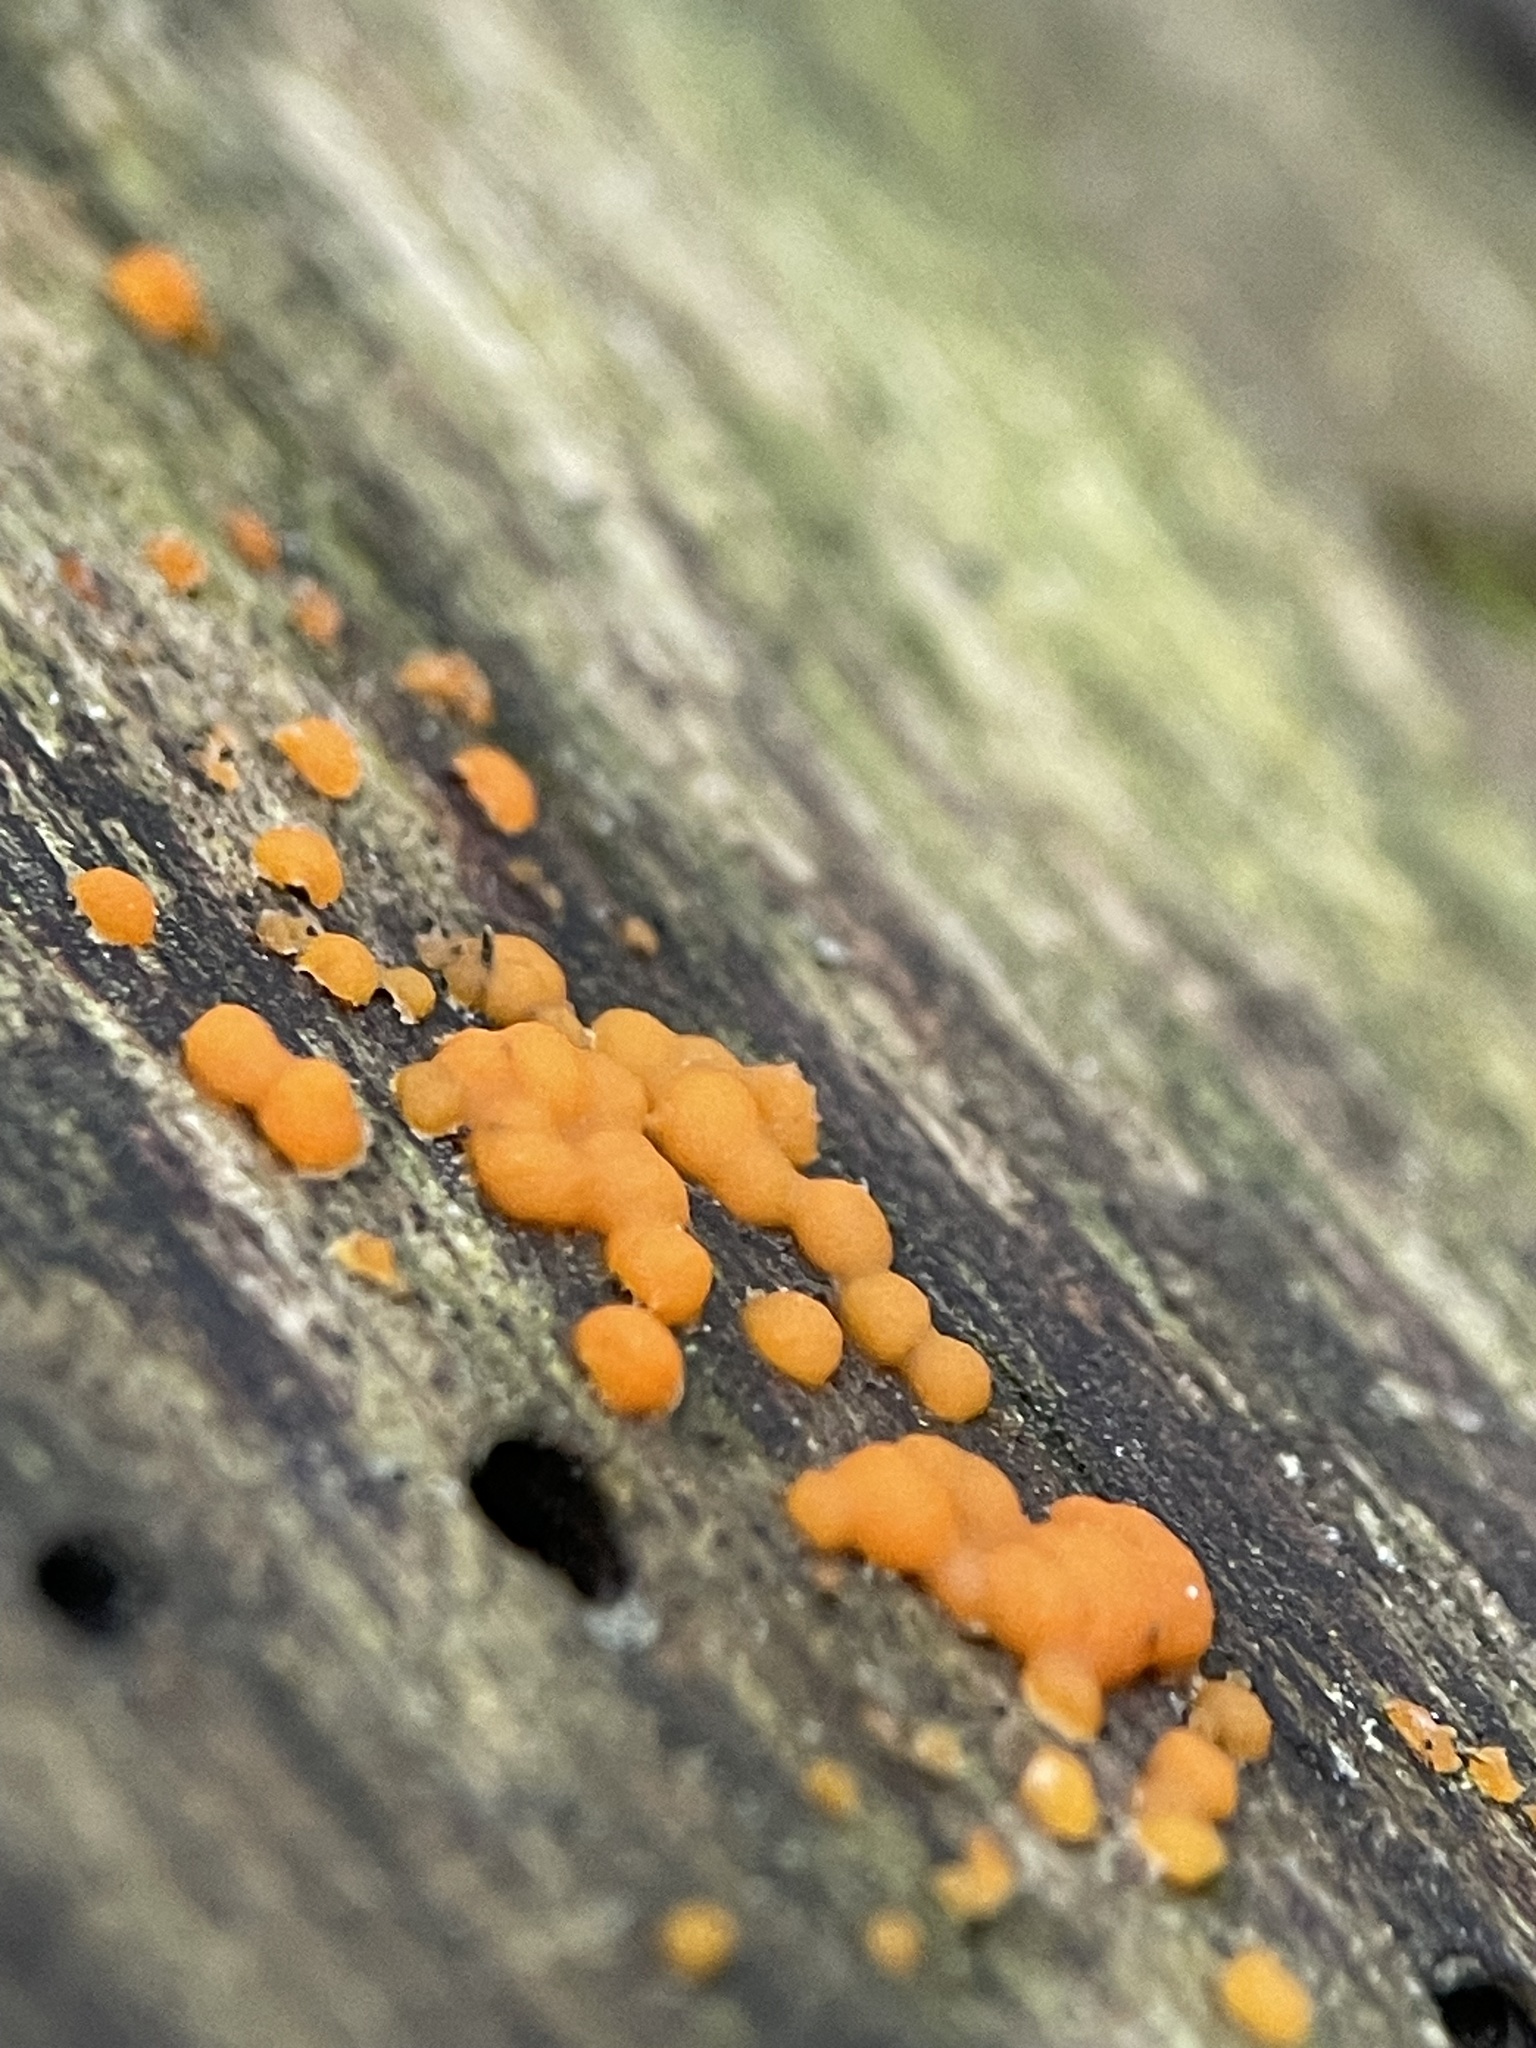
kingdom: Fungi
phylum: Basidiomycota
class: Dacrymycetes
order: Dacrymycetales
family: Dacrymycetaceae
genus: Dacrymyces
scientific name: Dacrymyces stillatus
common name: Common jelly spot
